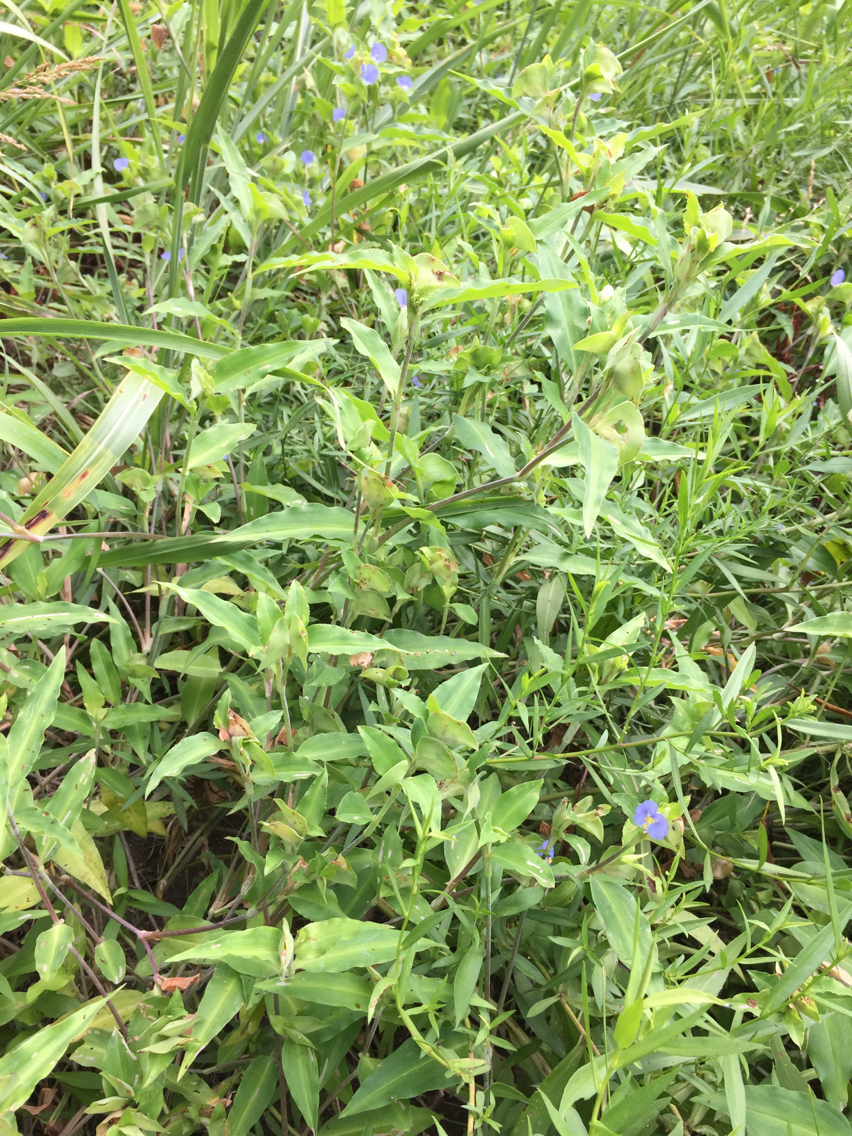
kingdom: Plantae
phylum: Tracheophyta
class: Liliopsida
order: Commelinales
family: Commelinaceae
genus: Commelina
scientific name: Commelina erecta
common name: Blousel blommetjie
